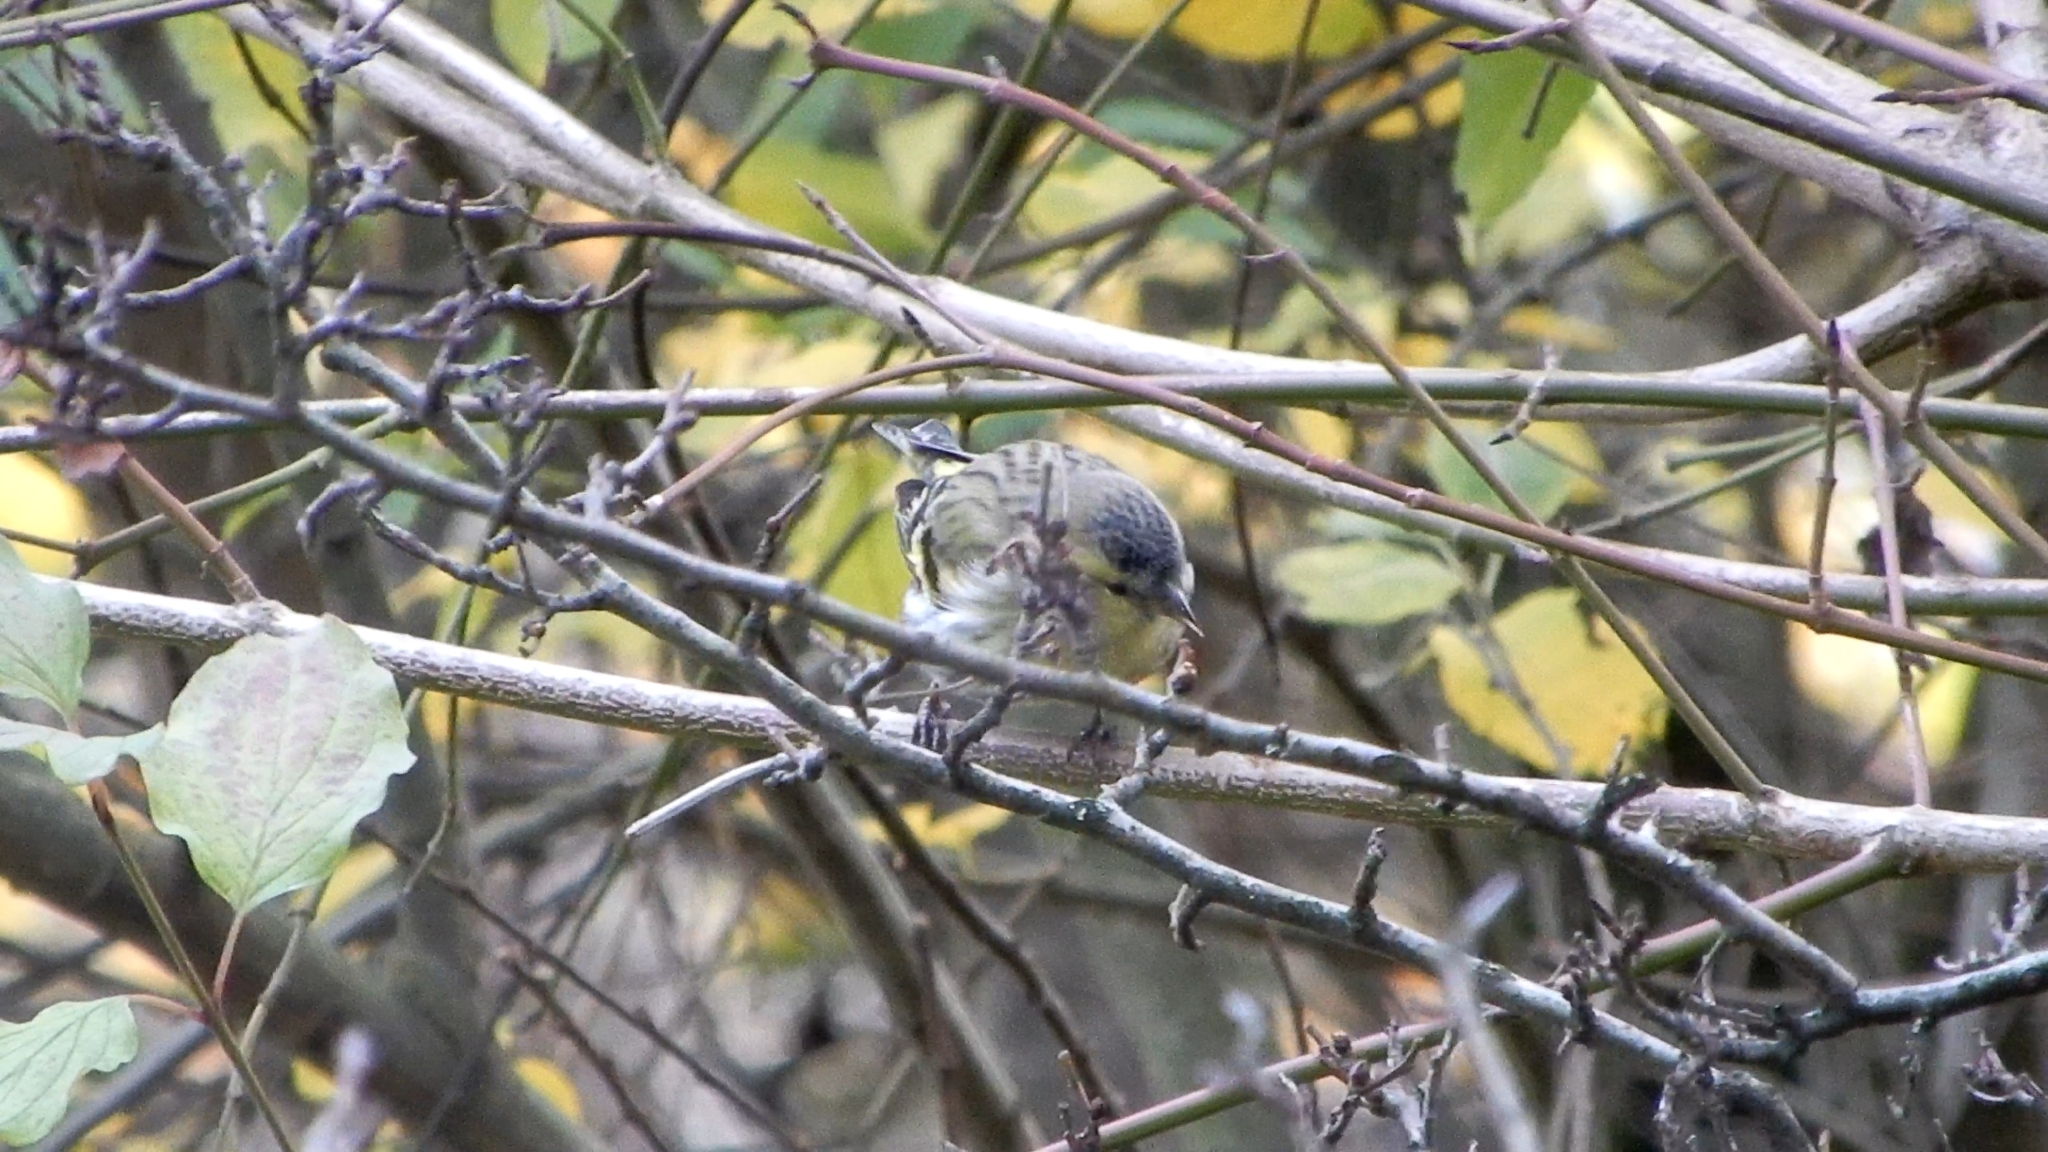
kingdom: Animalia
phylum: Chordata
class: Aves
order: Passeriformes
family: Fringillidae
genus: Spinus
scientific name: Spinus spinus
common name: Eurasian siskin
